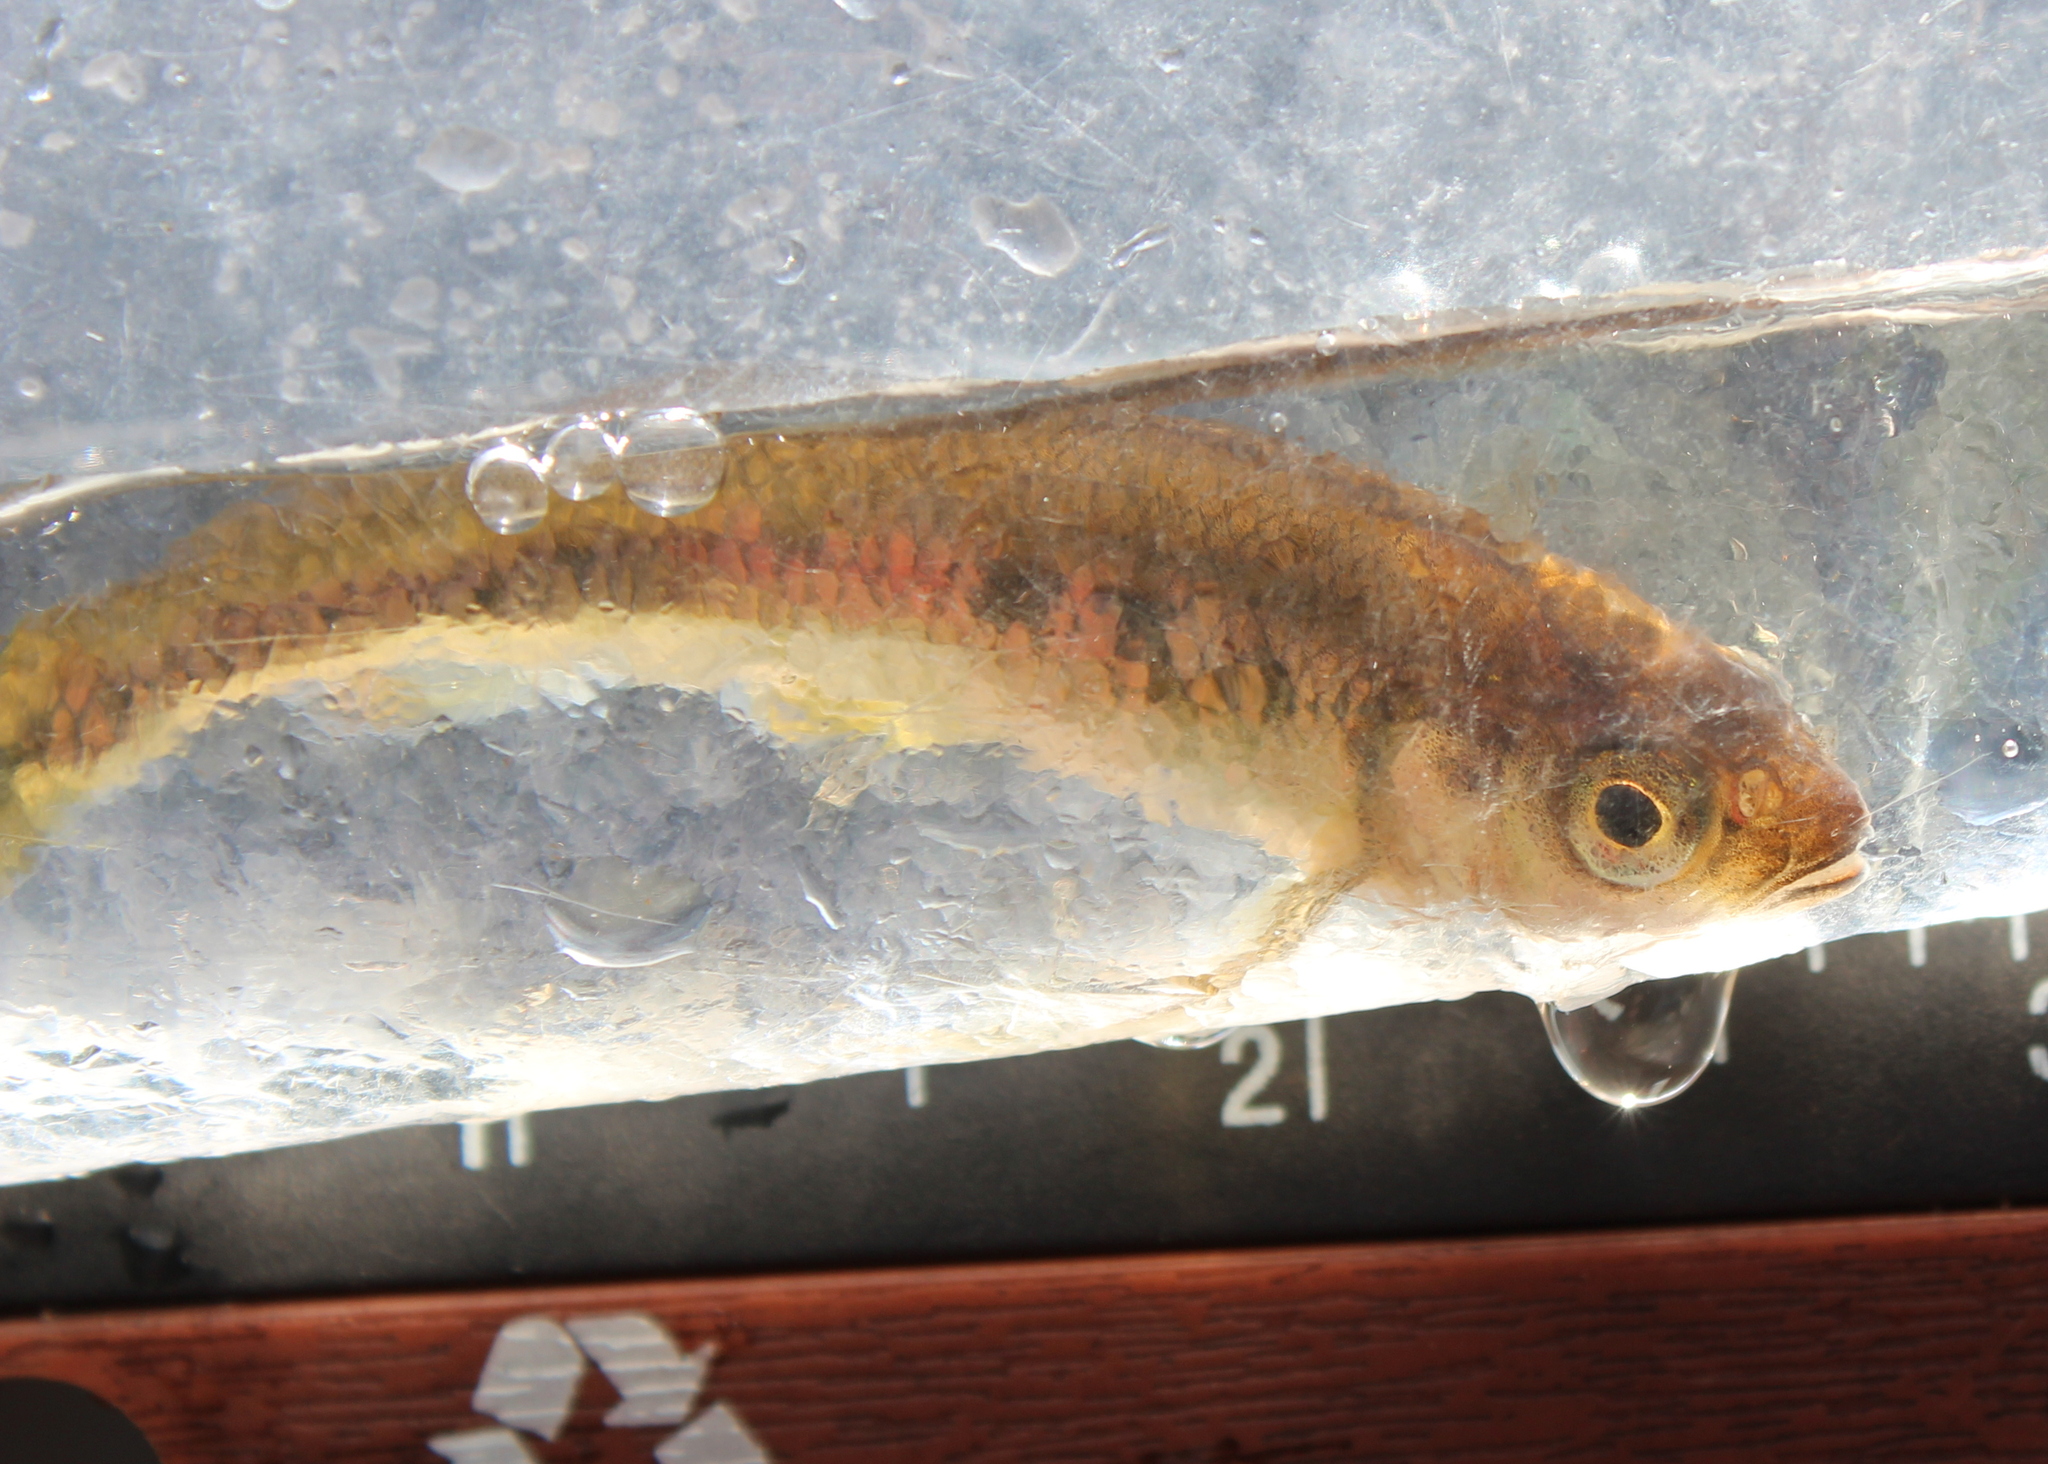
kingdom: Animalia
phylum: Chordata
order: Cypriniformes
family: Cyprinidae
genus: Luxilus
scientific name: Luxilus cornutus
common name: Common shiner
